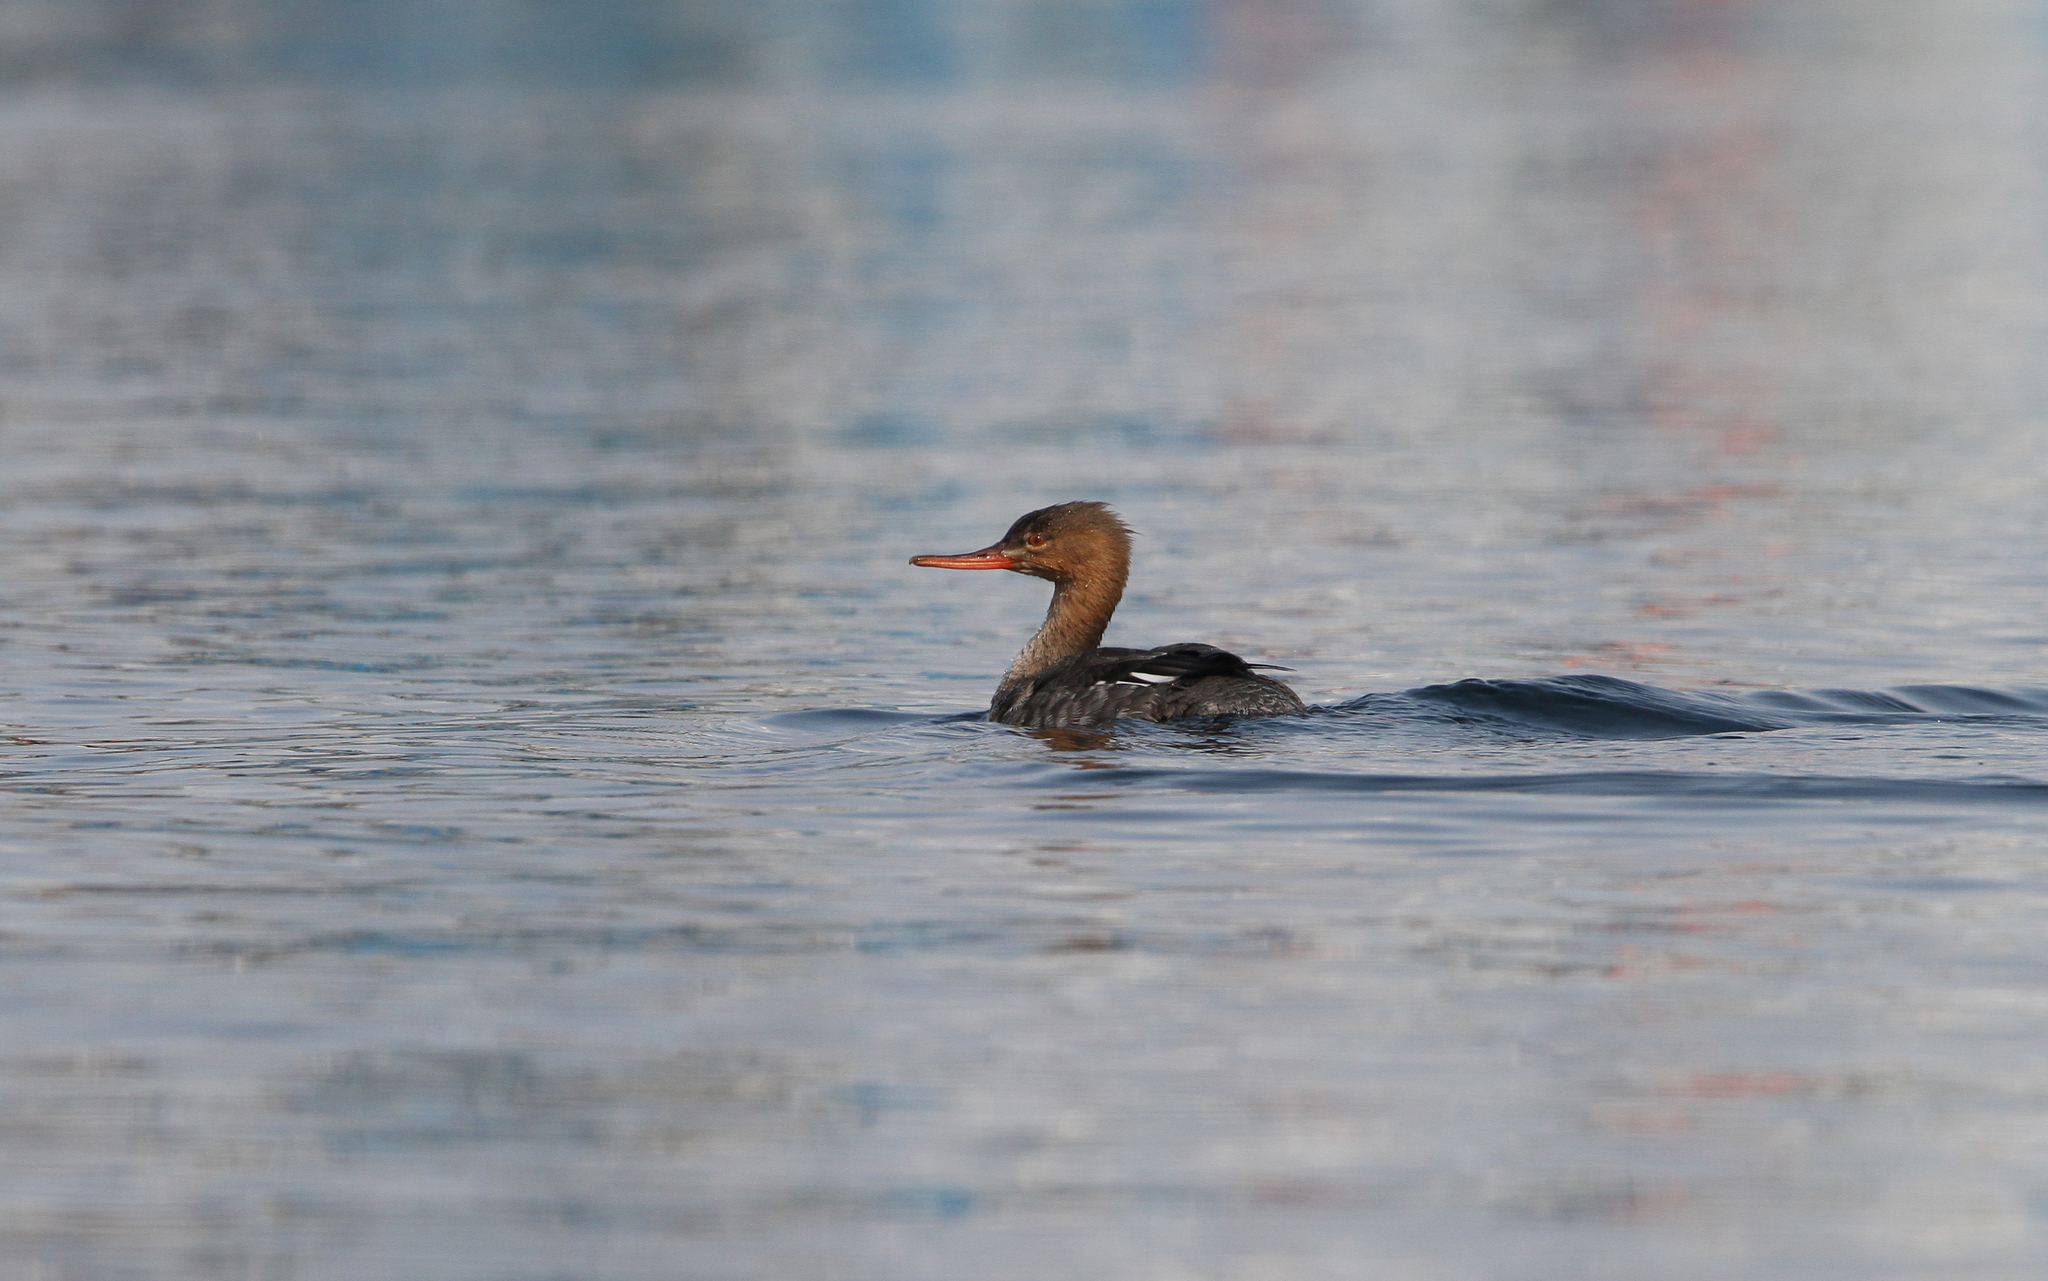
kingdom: Animalia
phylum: Chordata
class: Aves
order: Anseriformes
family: Anatidae
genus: Mergus
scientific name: Mergus serrator
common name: Red-breasted merganser
